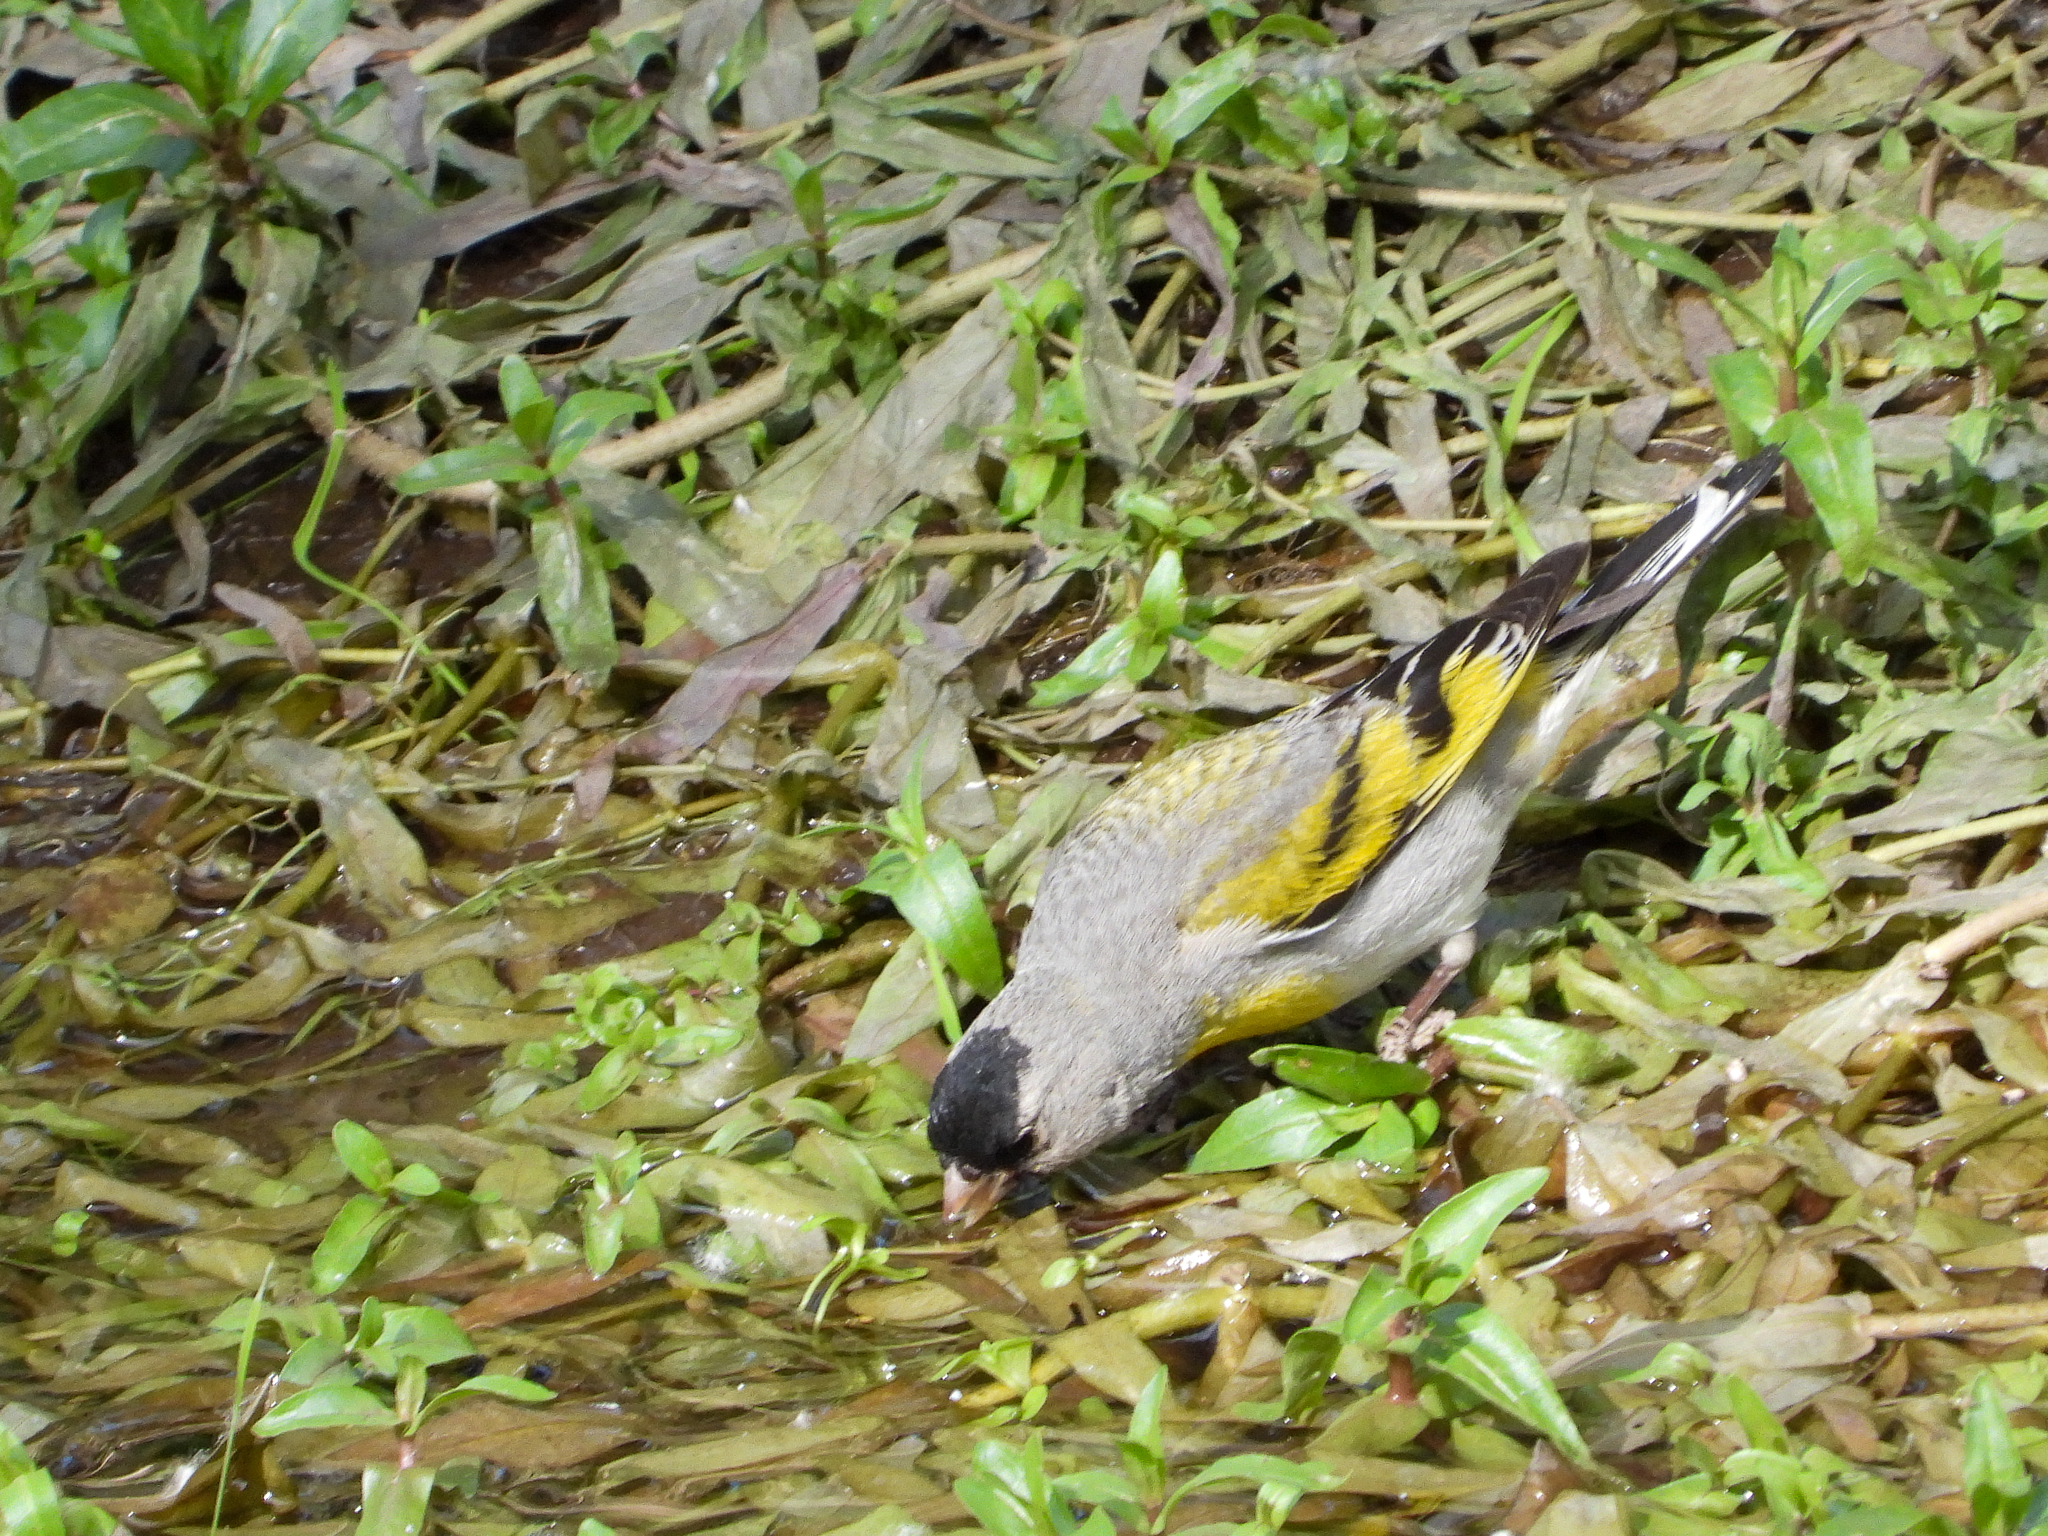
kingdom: Animalia
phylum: Chordata
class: Aves
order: Passeriformes
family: Fringillidae
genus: Spinus
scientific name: Spinus lawrencei
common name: Lawrence's goldfinch
